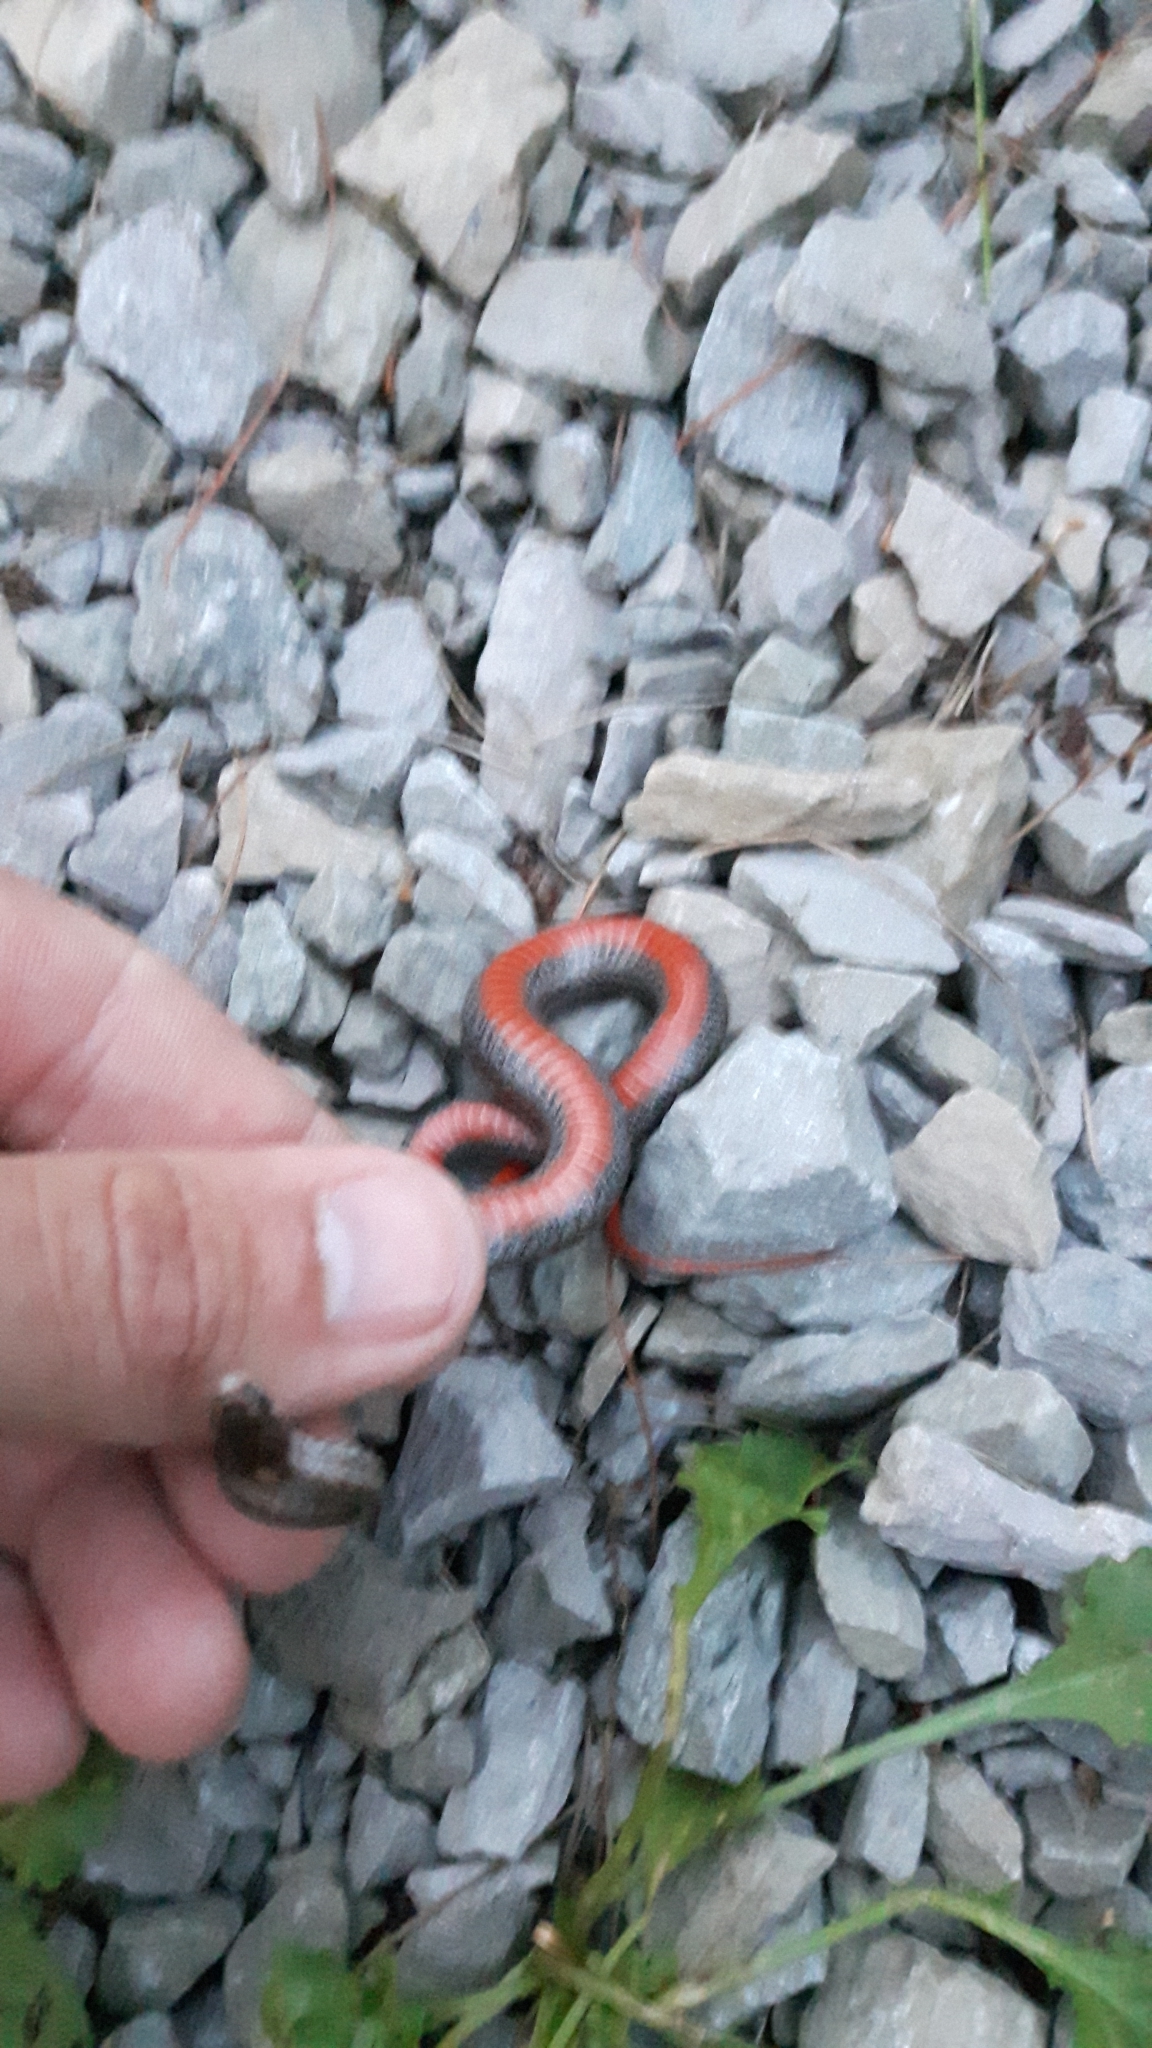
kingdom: Animalia
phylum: Chordata
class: Squamata
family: Colubridae
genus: Storeria
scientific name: Storeria occipitomaculata
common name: Redbelly snake
